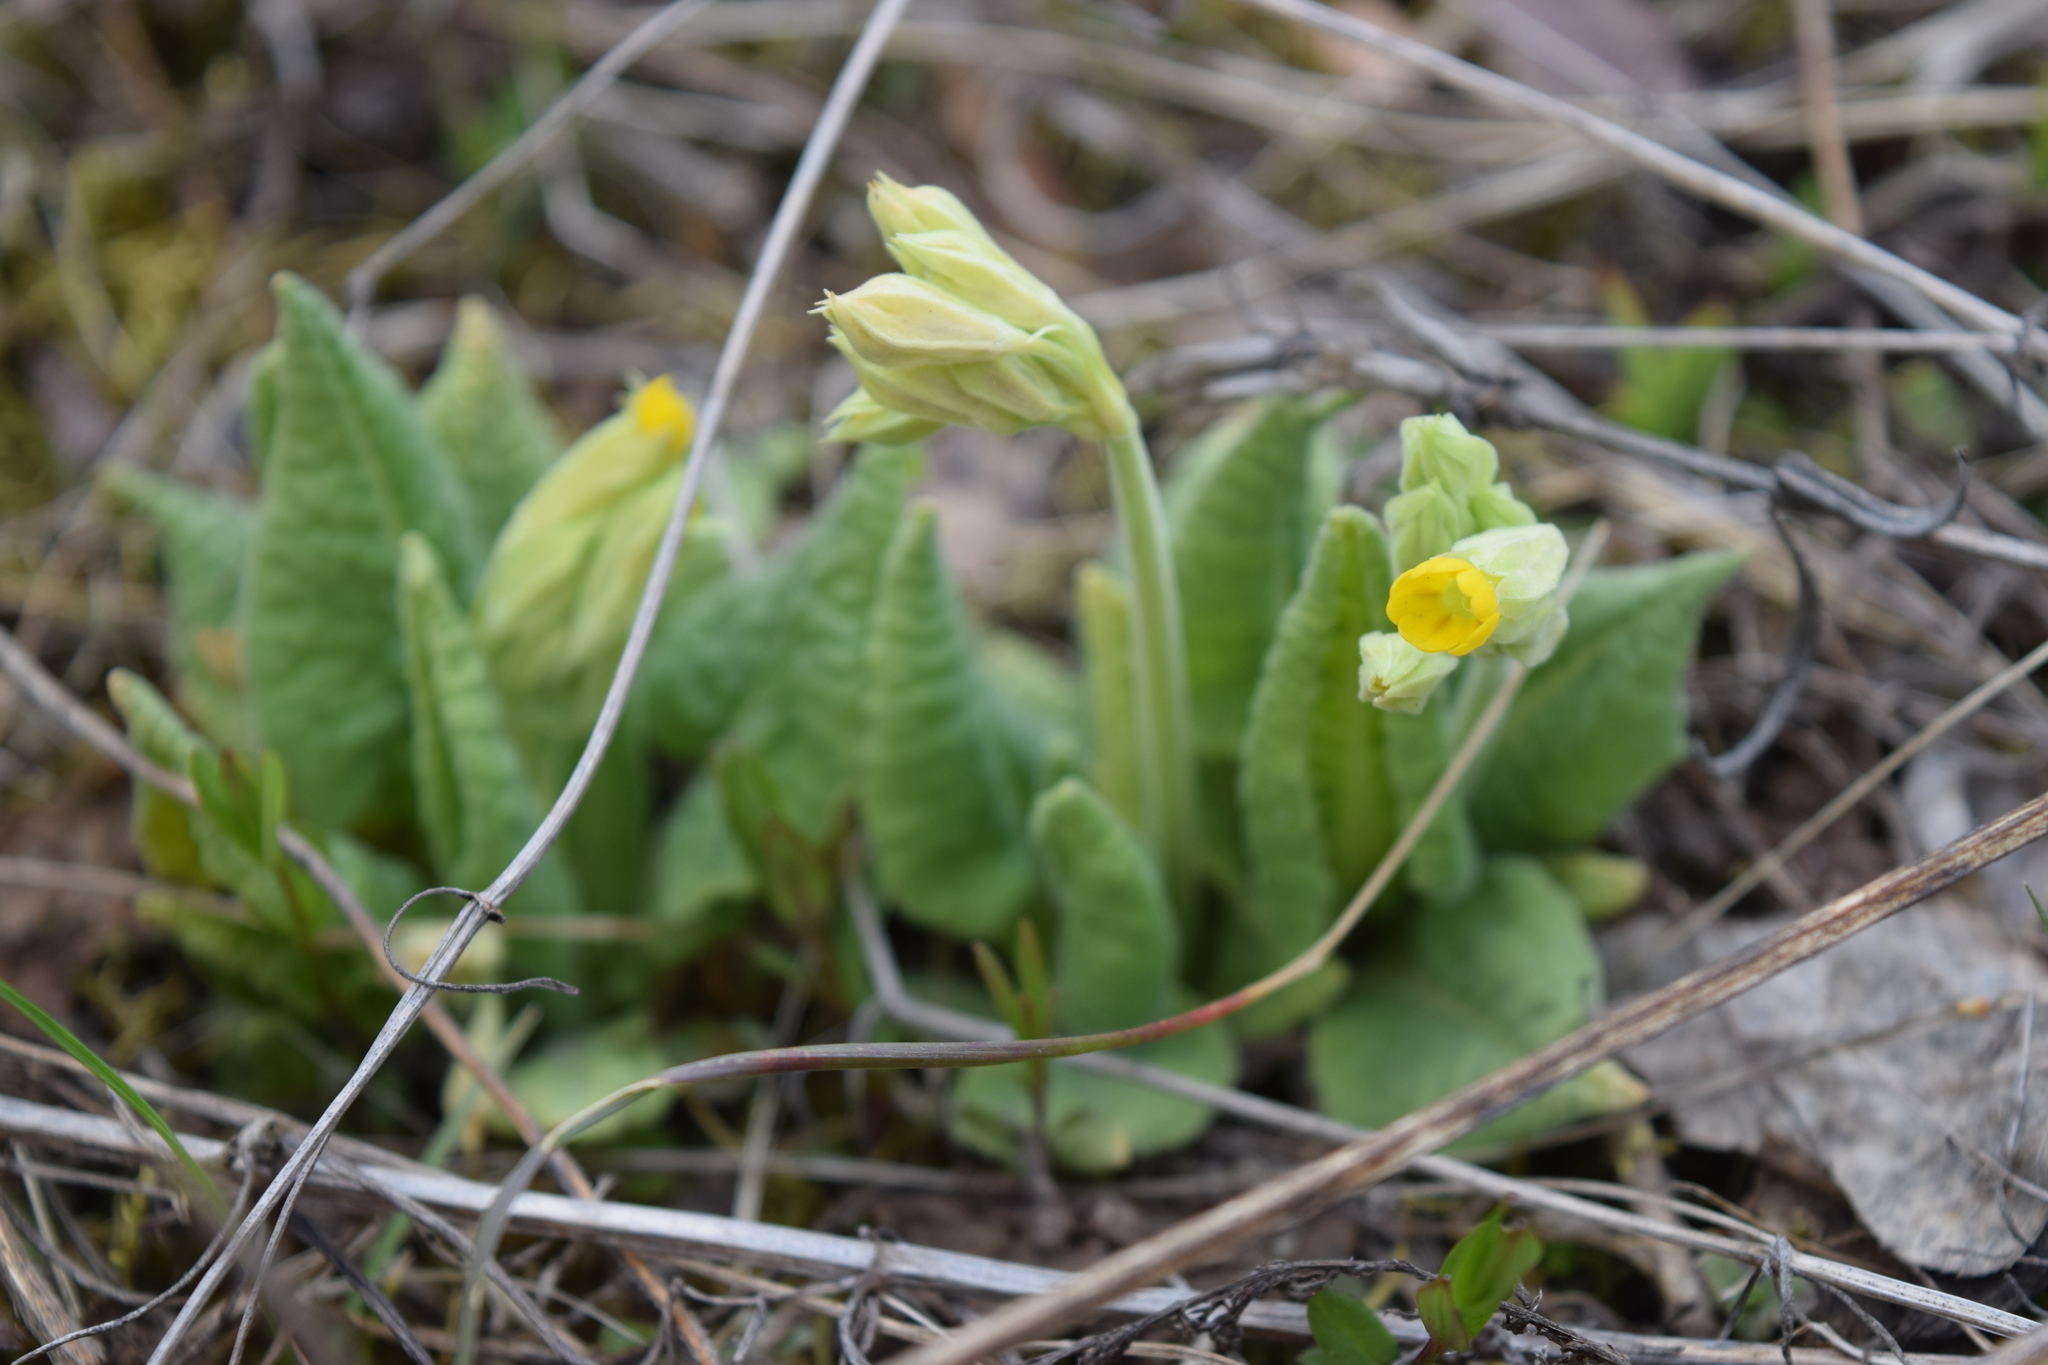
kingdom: Plantae
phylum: Tracheophyta
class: Magnoliopsida
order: Ericales
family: Primulaceae
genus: Primula
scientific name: Primula veris
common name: Cowslip
